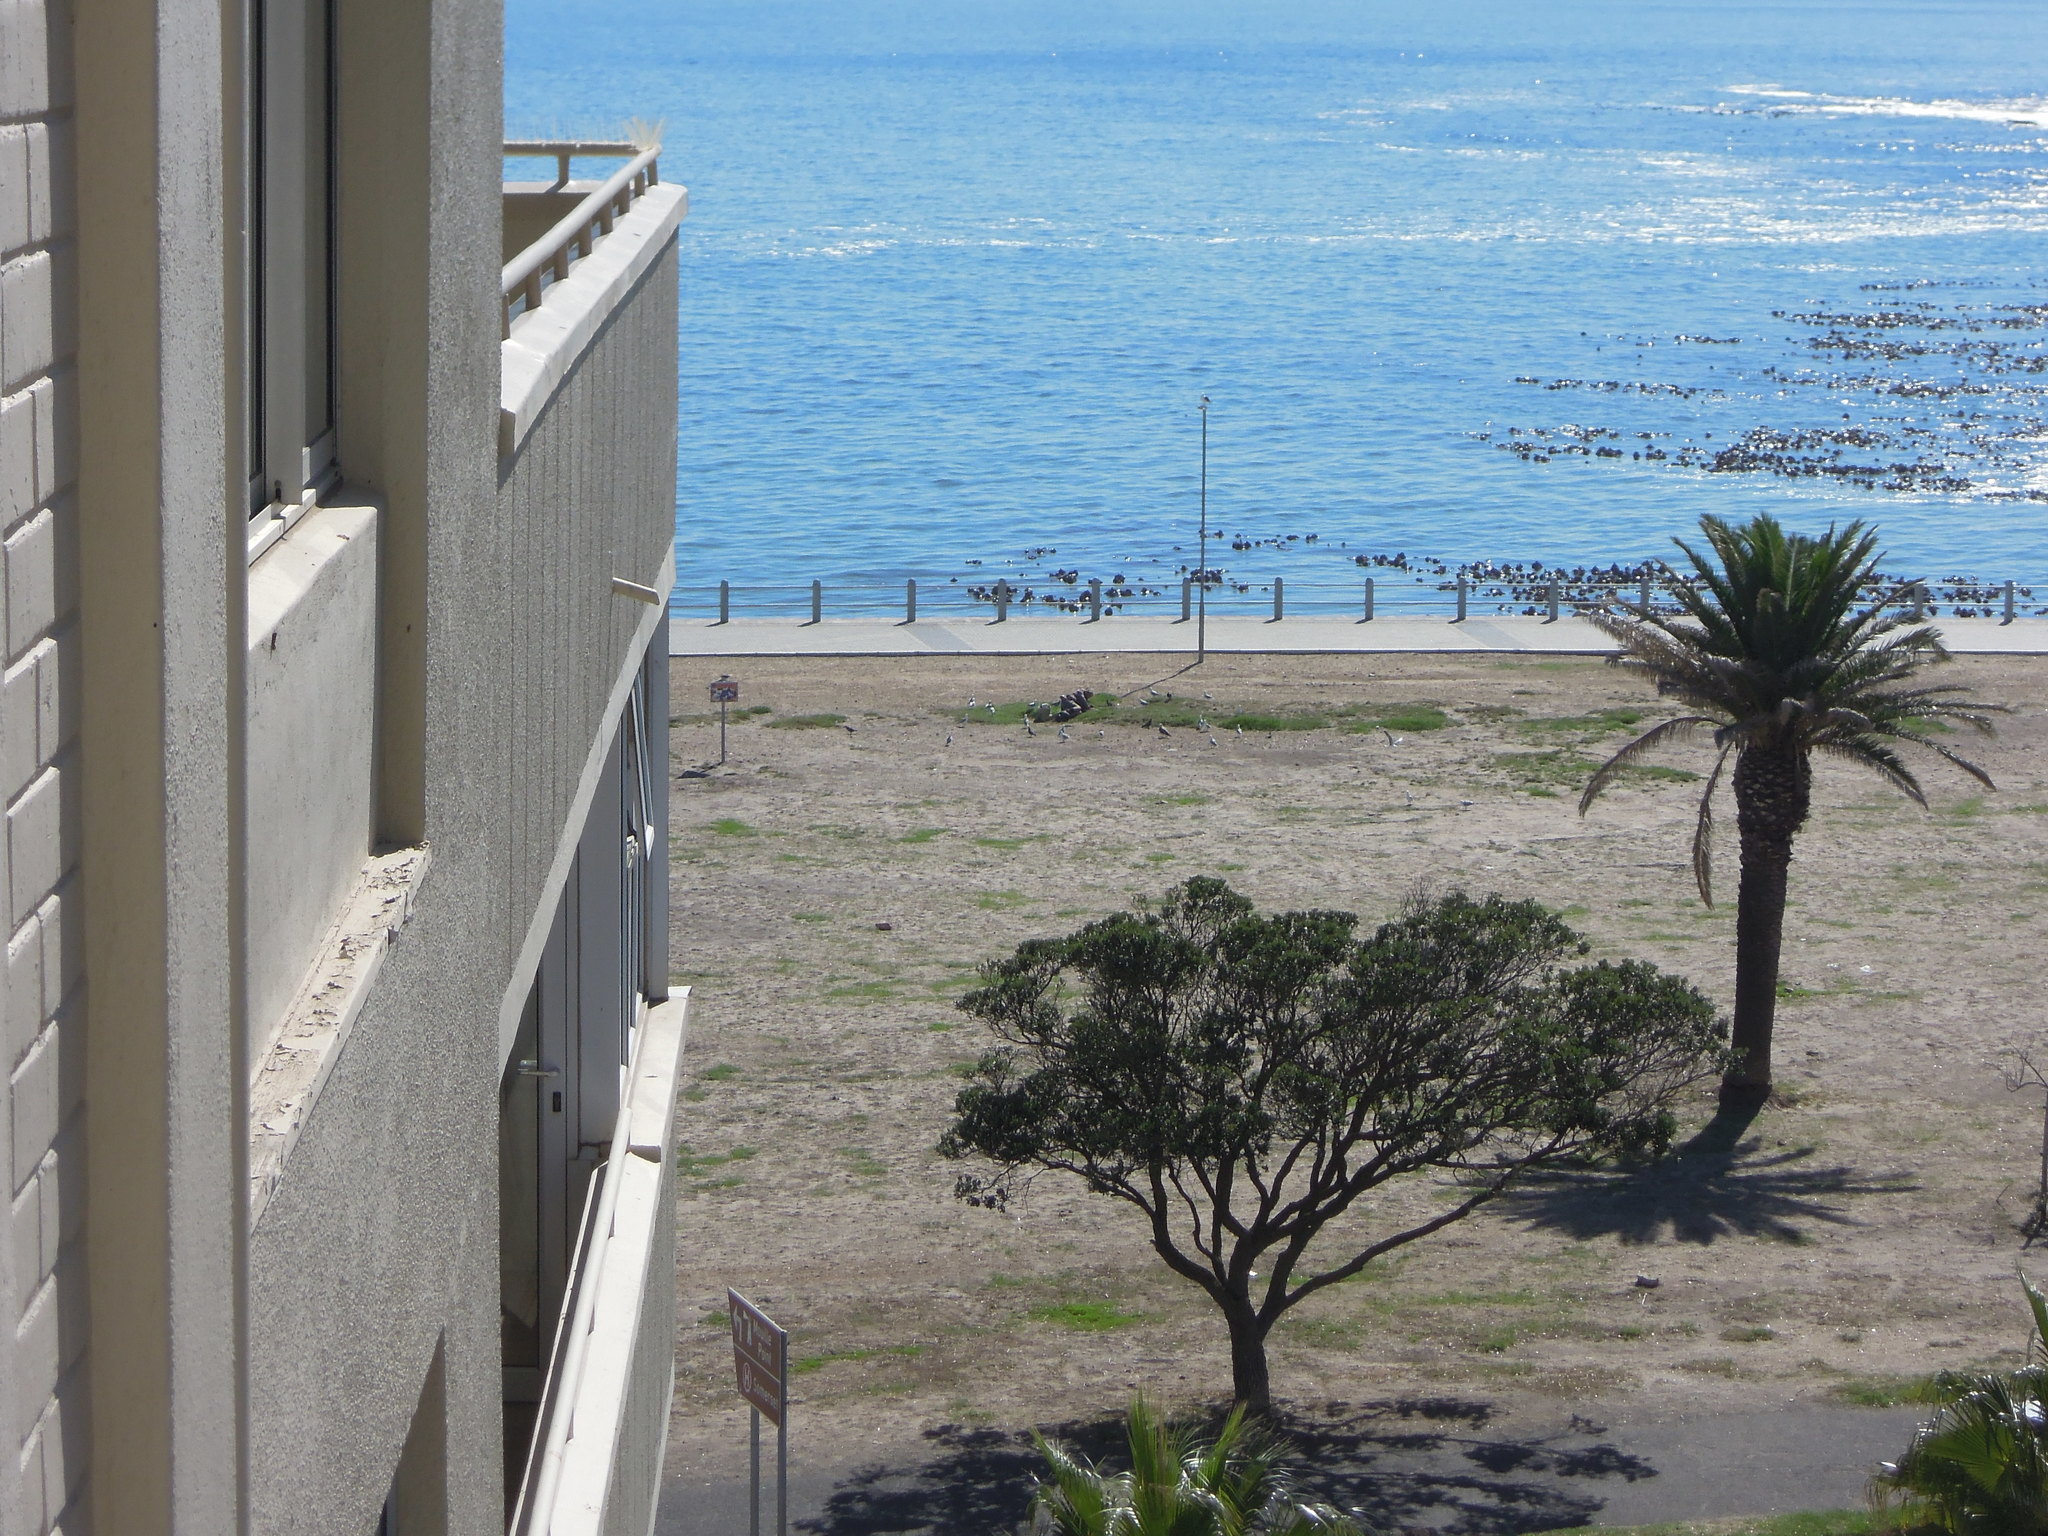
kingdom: Animalia
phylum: Chordata
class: Aves
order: Charadriiformes
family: Laridae
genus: Chroicocephalus
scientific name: Chroicocephalus hartlaubii
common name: Hartlaub's gull
